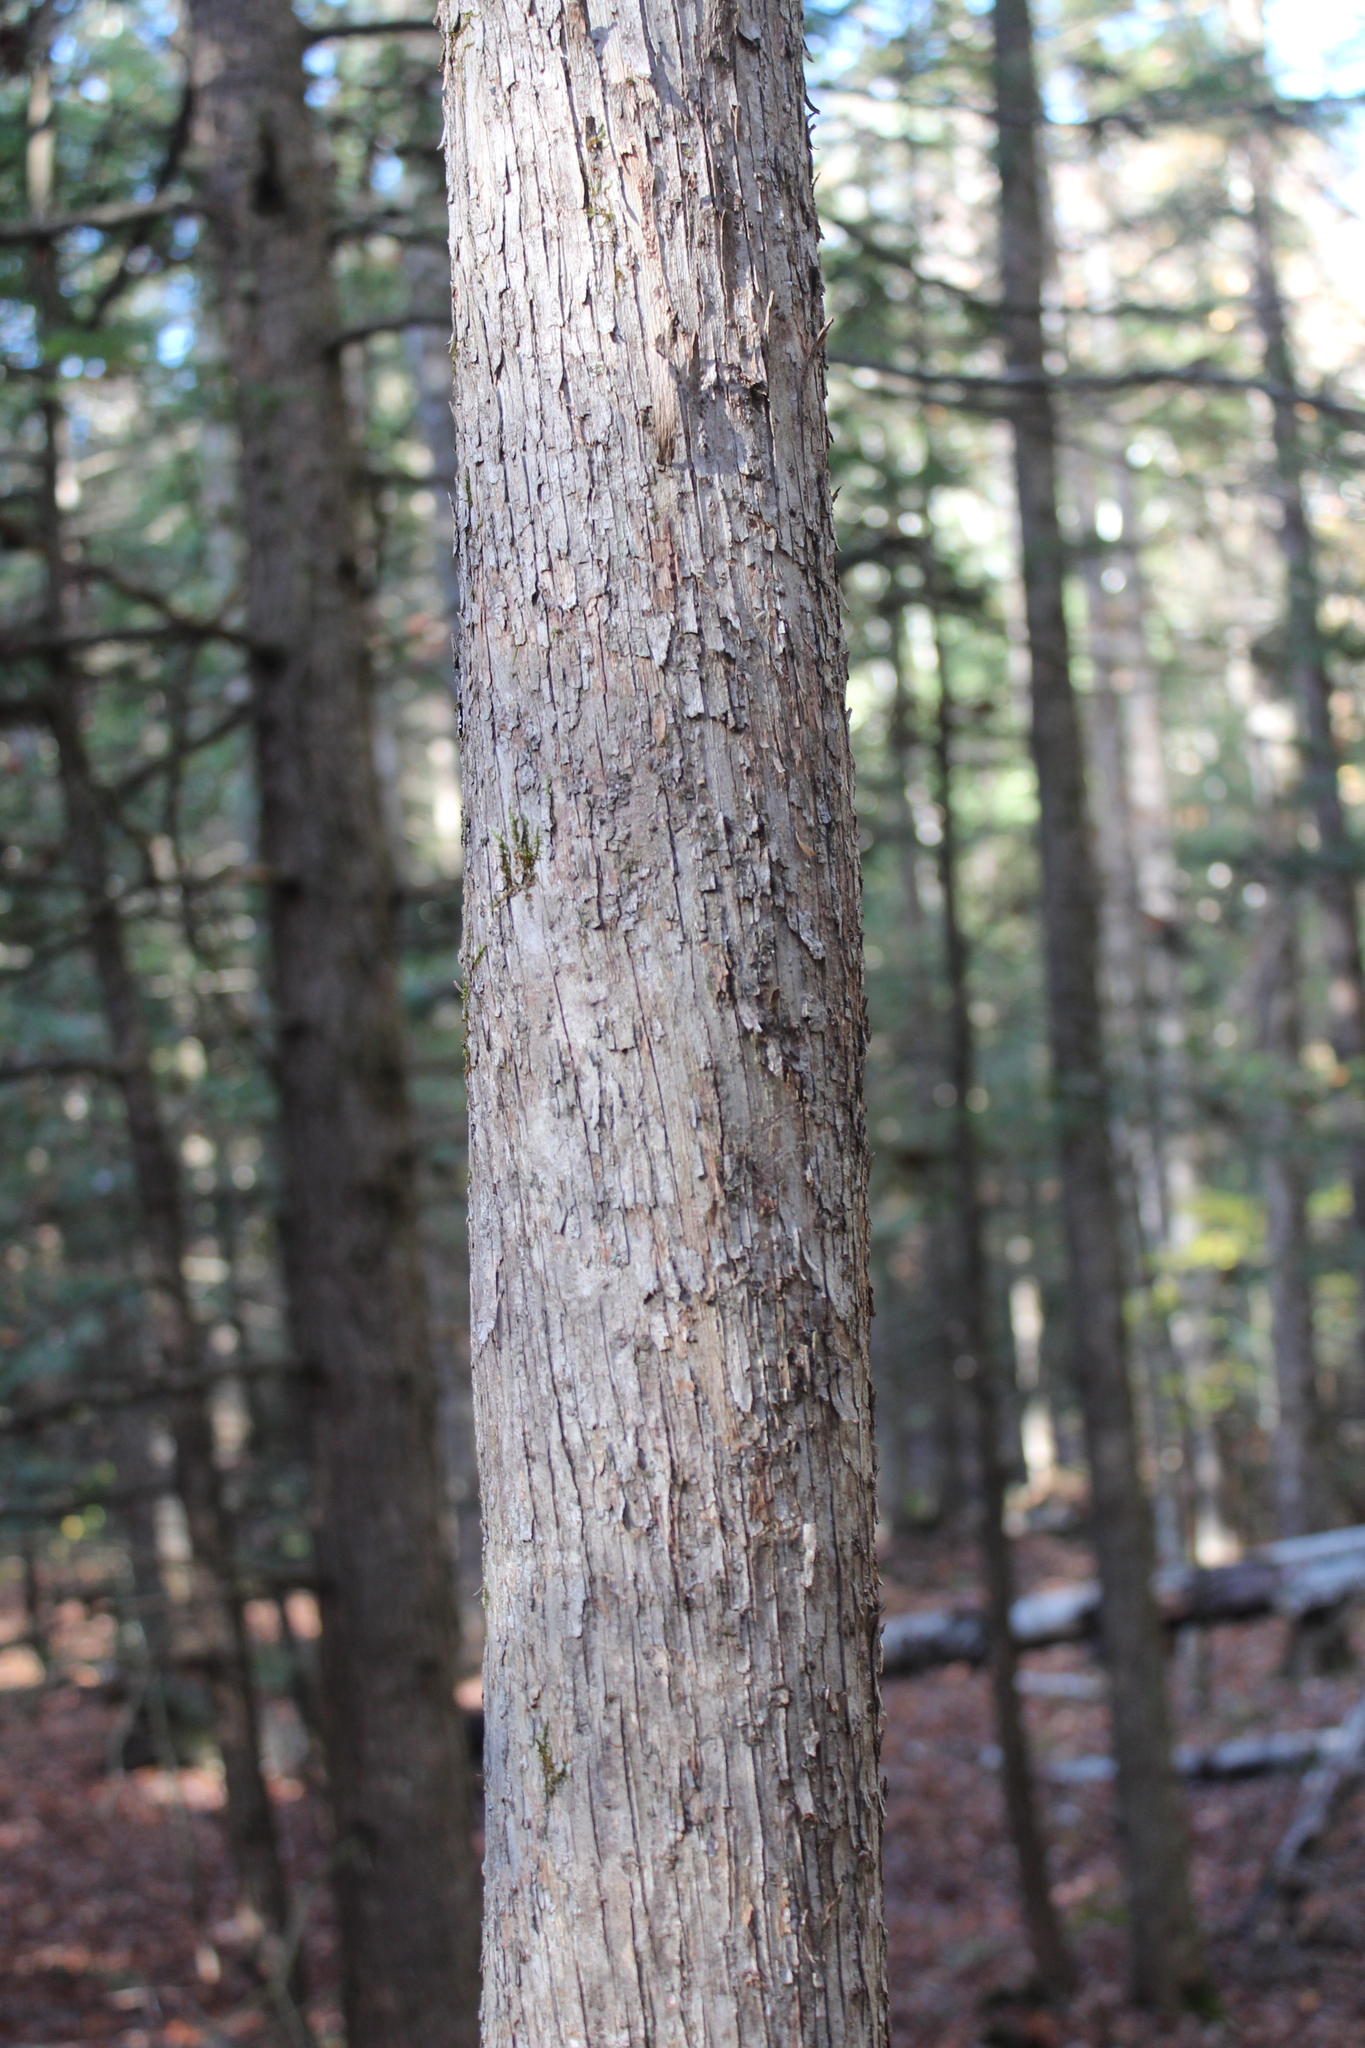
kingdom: Plantae
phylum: Tracheophyta
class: Magnoliopsida
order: Fagales
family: Betulaceae
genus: Ostrya
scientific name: Ostrya virginiana
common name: Ironwood
